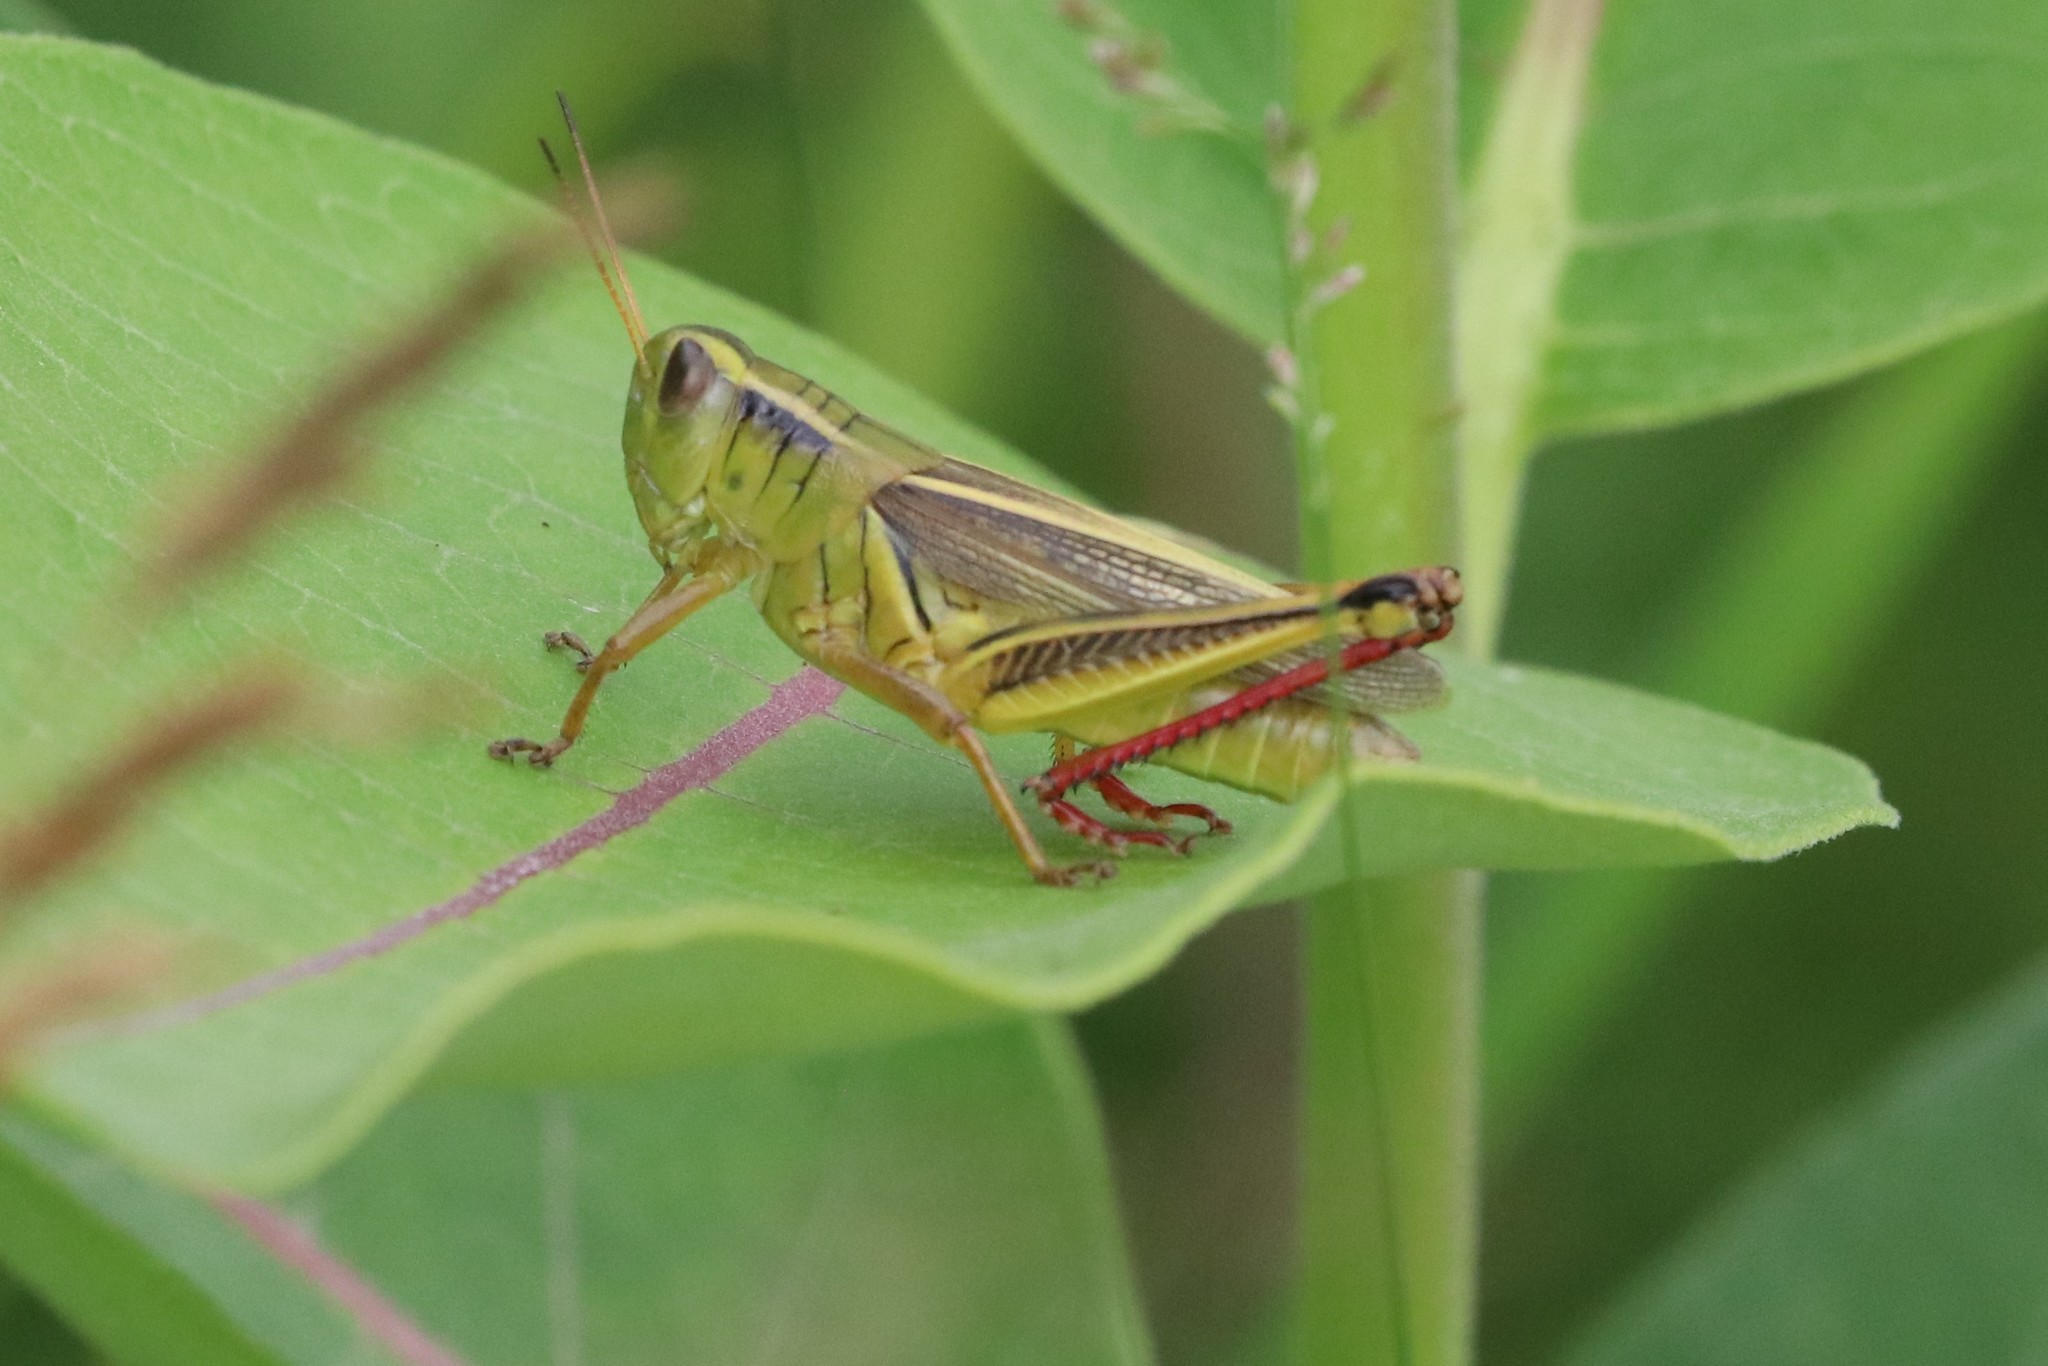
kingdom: Animalia
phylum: Arthropoda
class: Insecta
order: Orthoptera
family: Acrididae
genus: Melanoplus
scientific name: Melanoplus bivittatus
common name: Two-striped grasshopper
